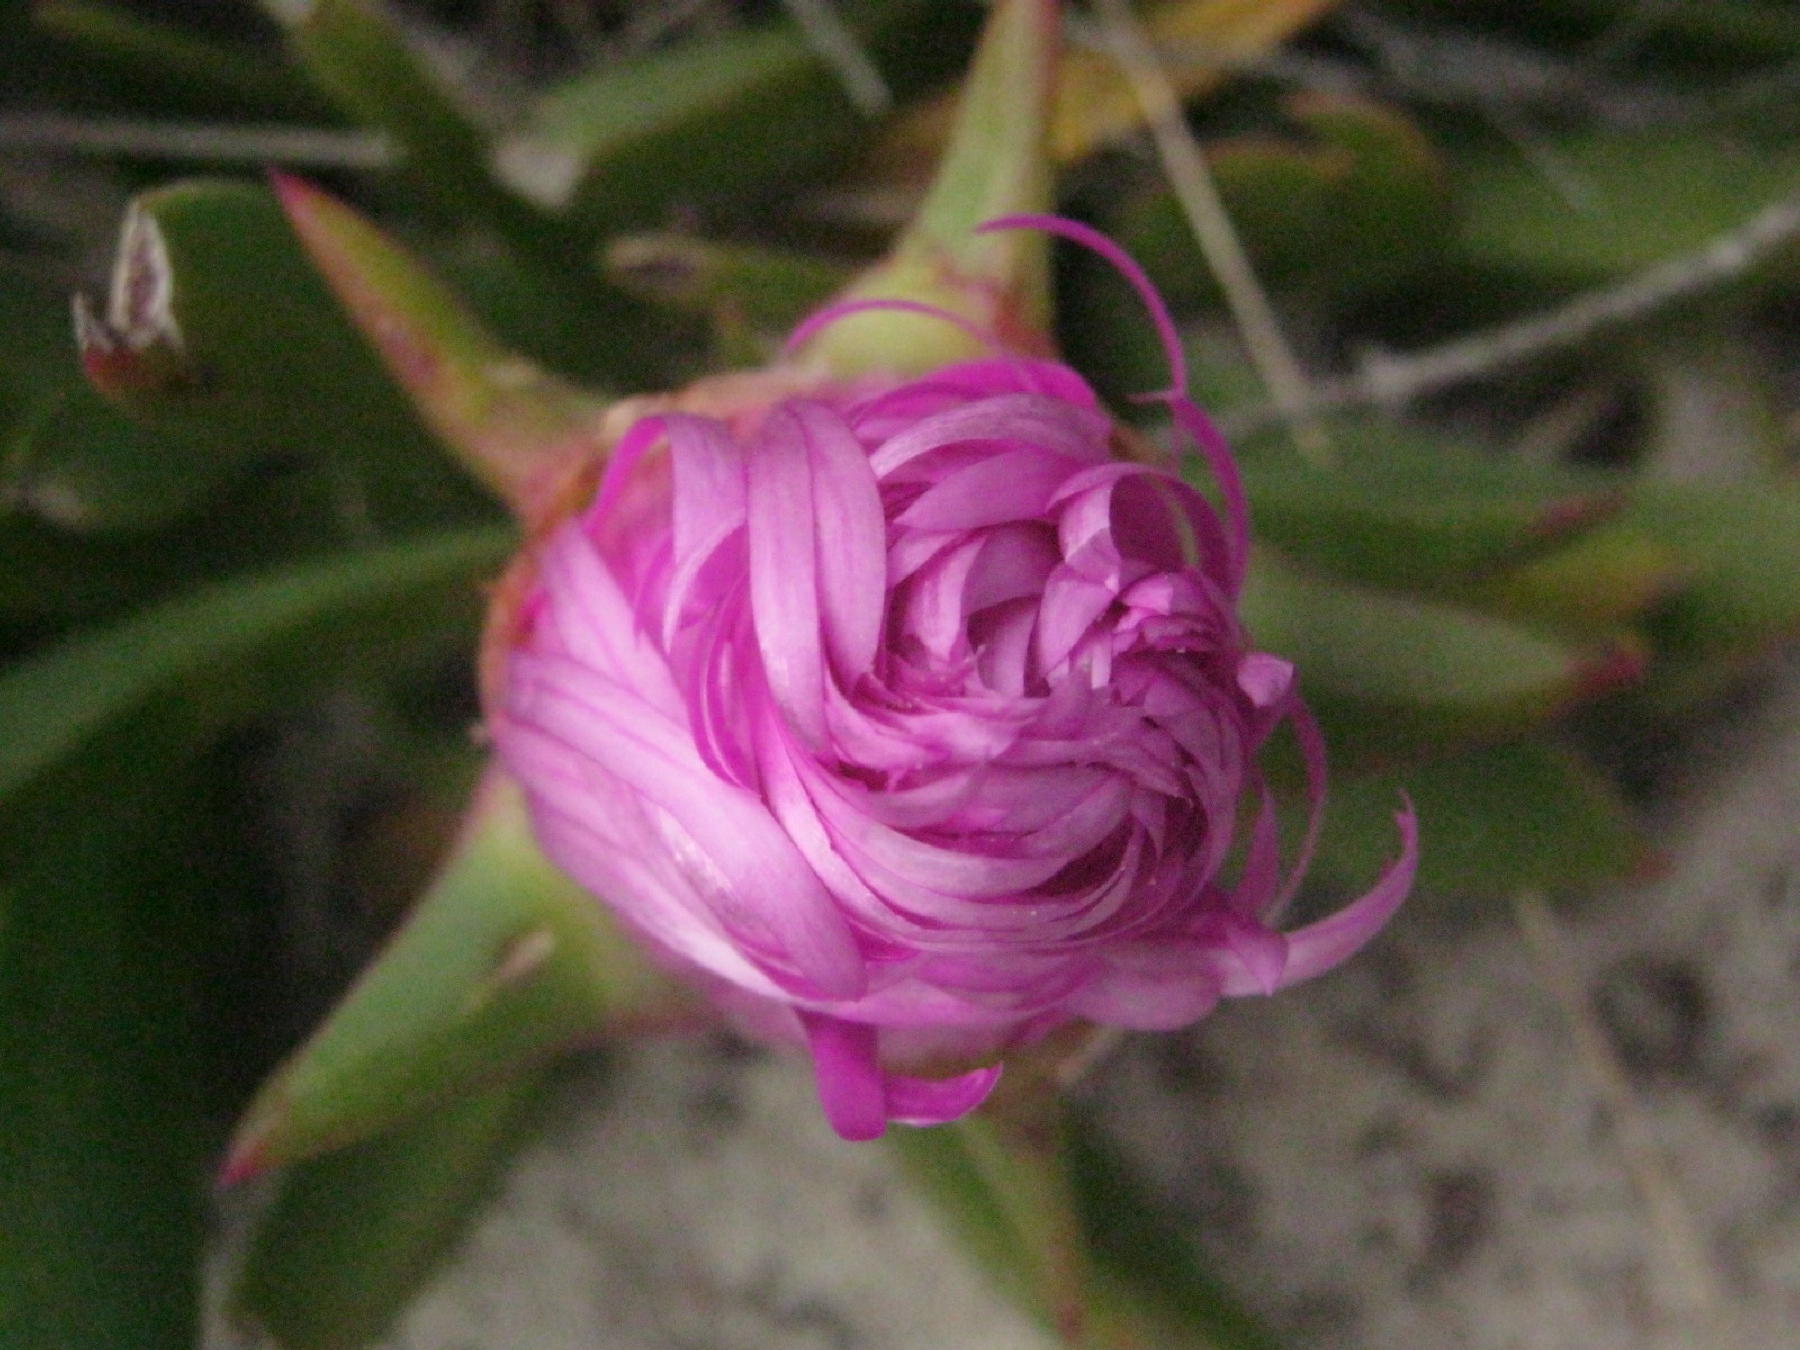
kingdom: Plantae
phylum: Tracheophyta
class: Magnoliopsida
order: Caryophyllales
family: Aizoaceae
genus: Carpobrotus
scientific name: Carpobrotus deliciosus
